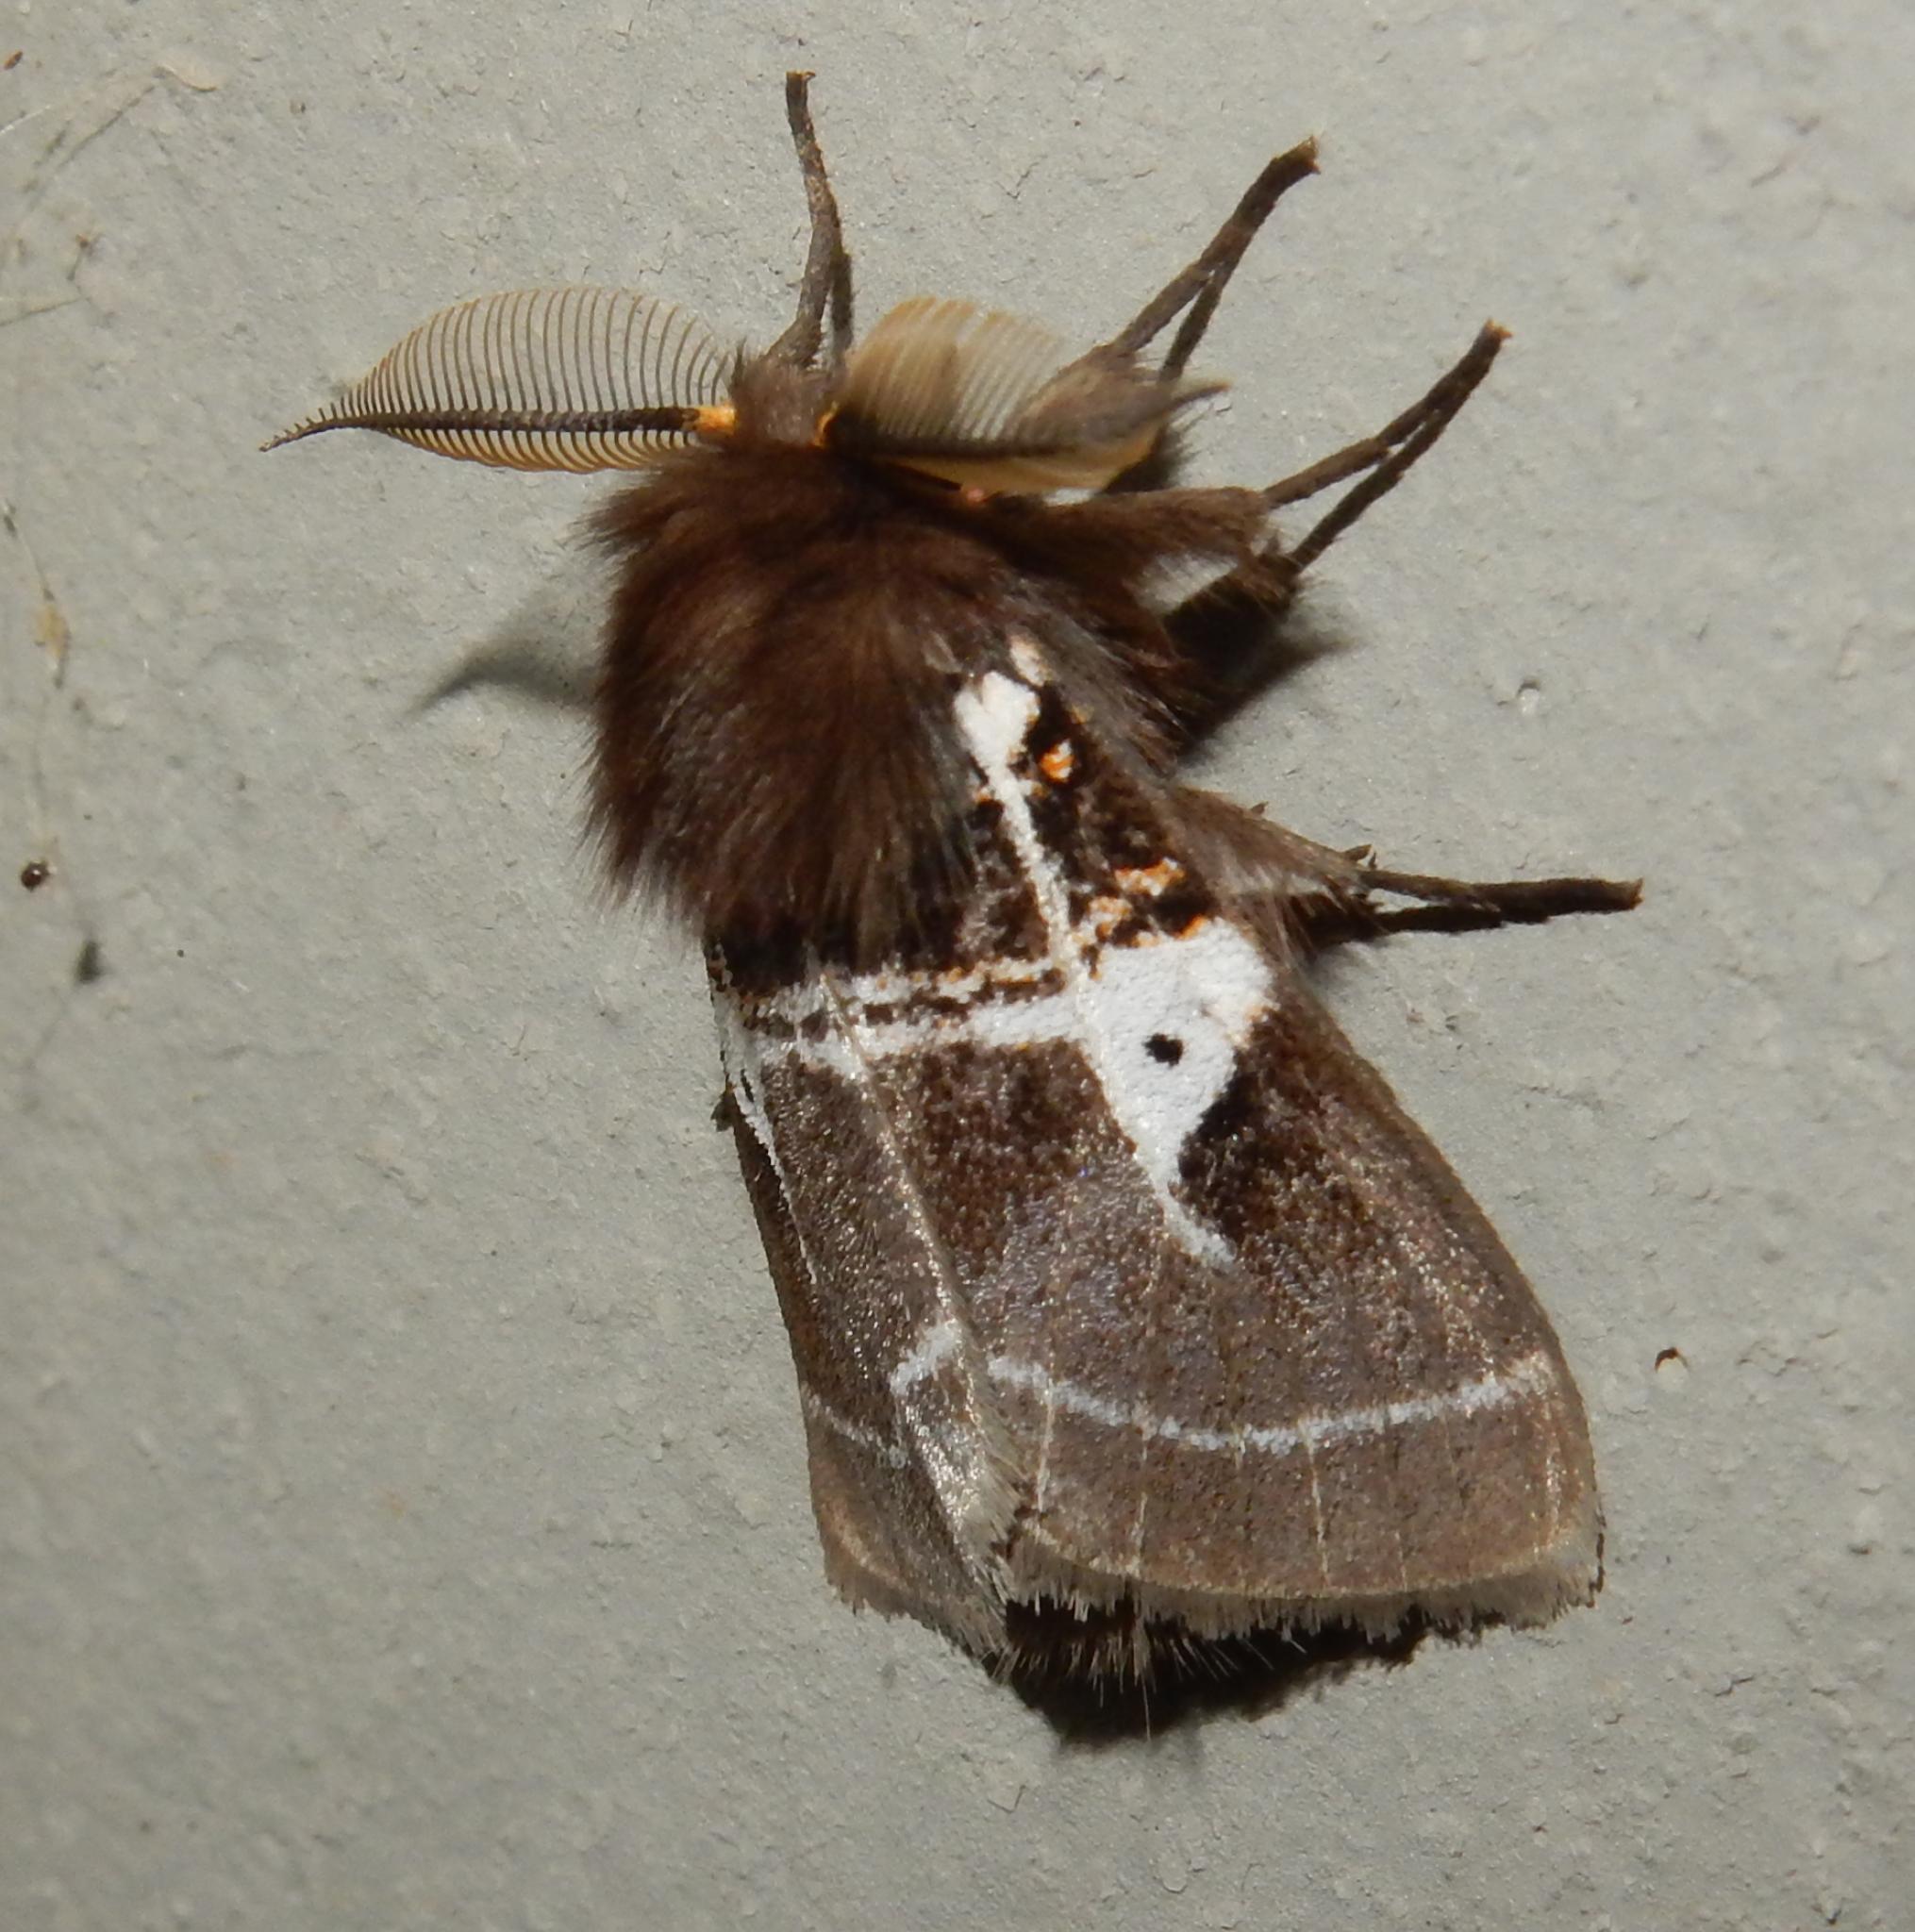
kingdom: Animalia
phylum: Arthropoda
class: Insecta
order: Lepidoptera
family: Erebidae
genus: Lymantria
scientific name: Lymantria Morasa modesta
